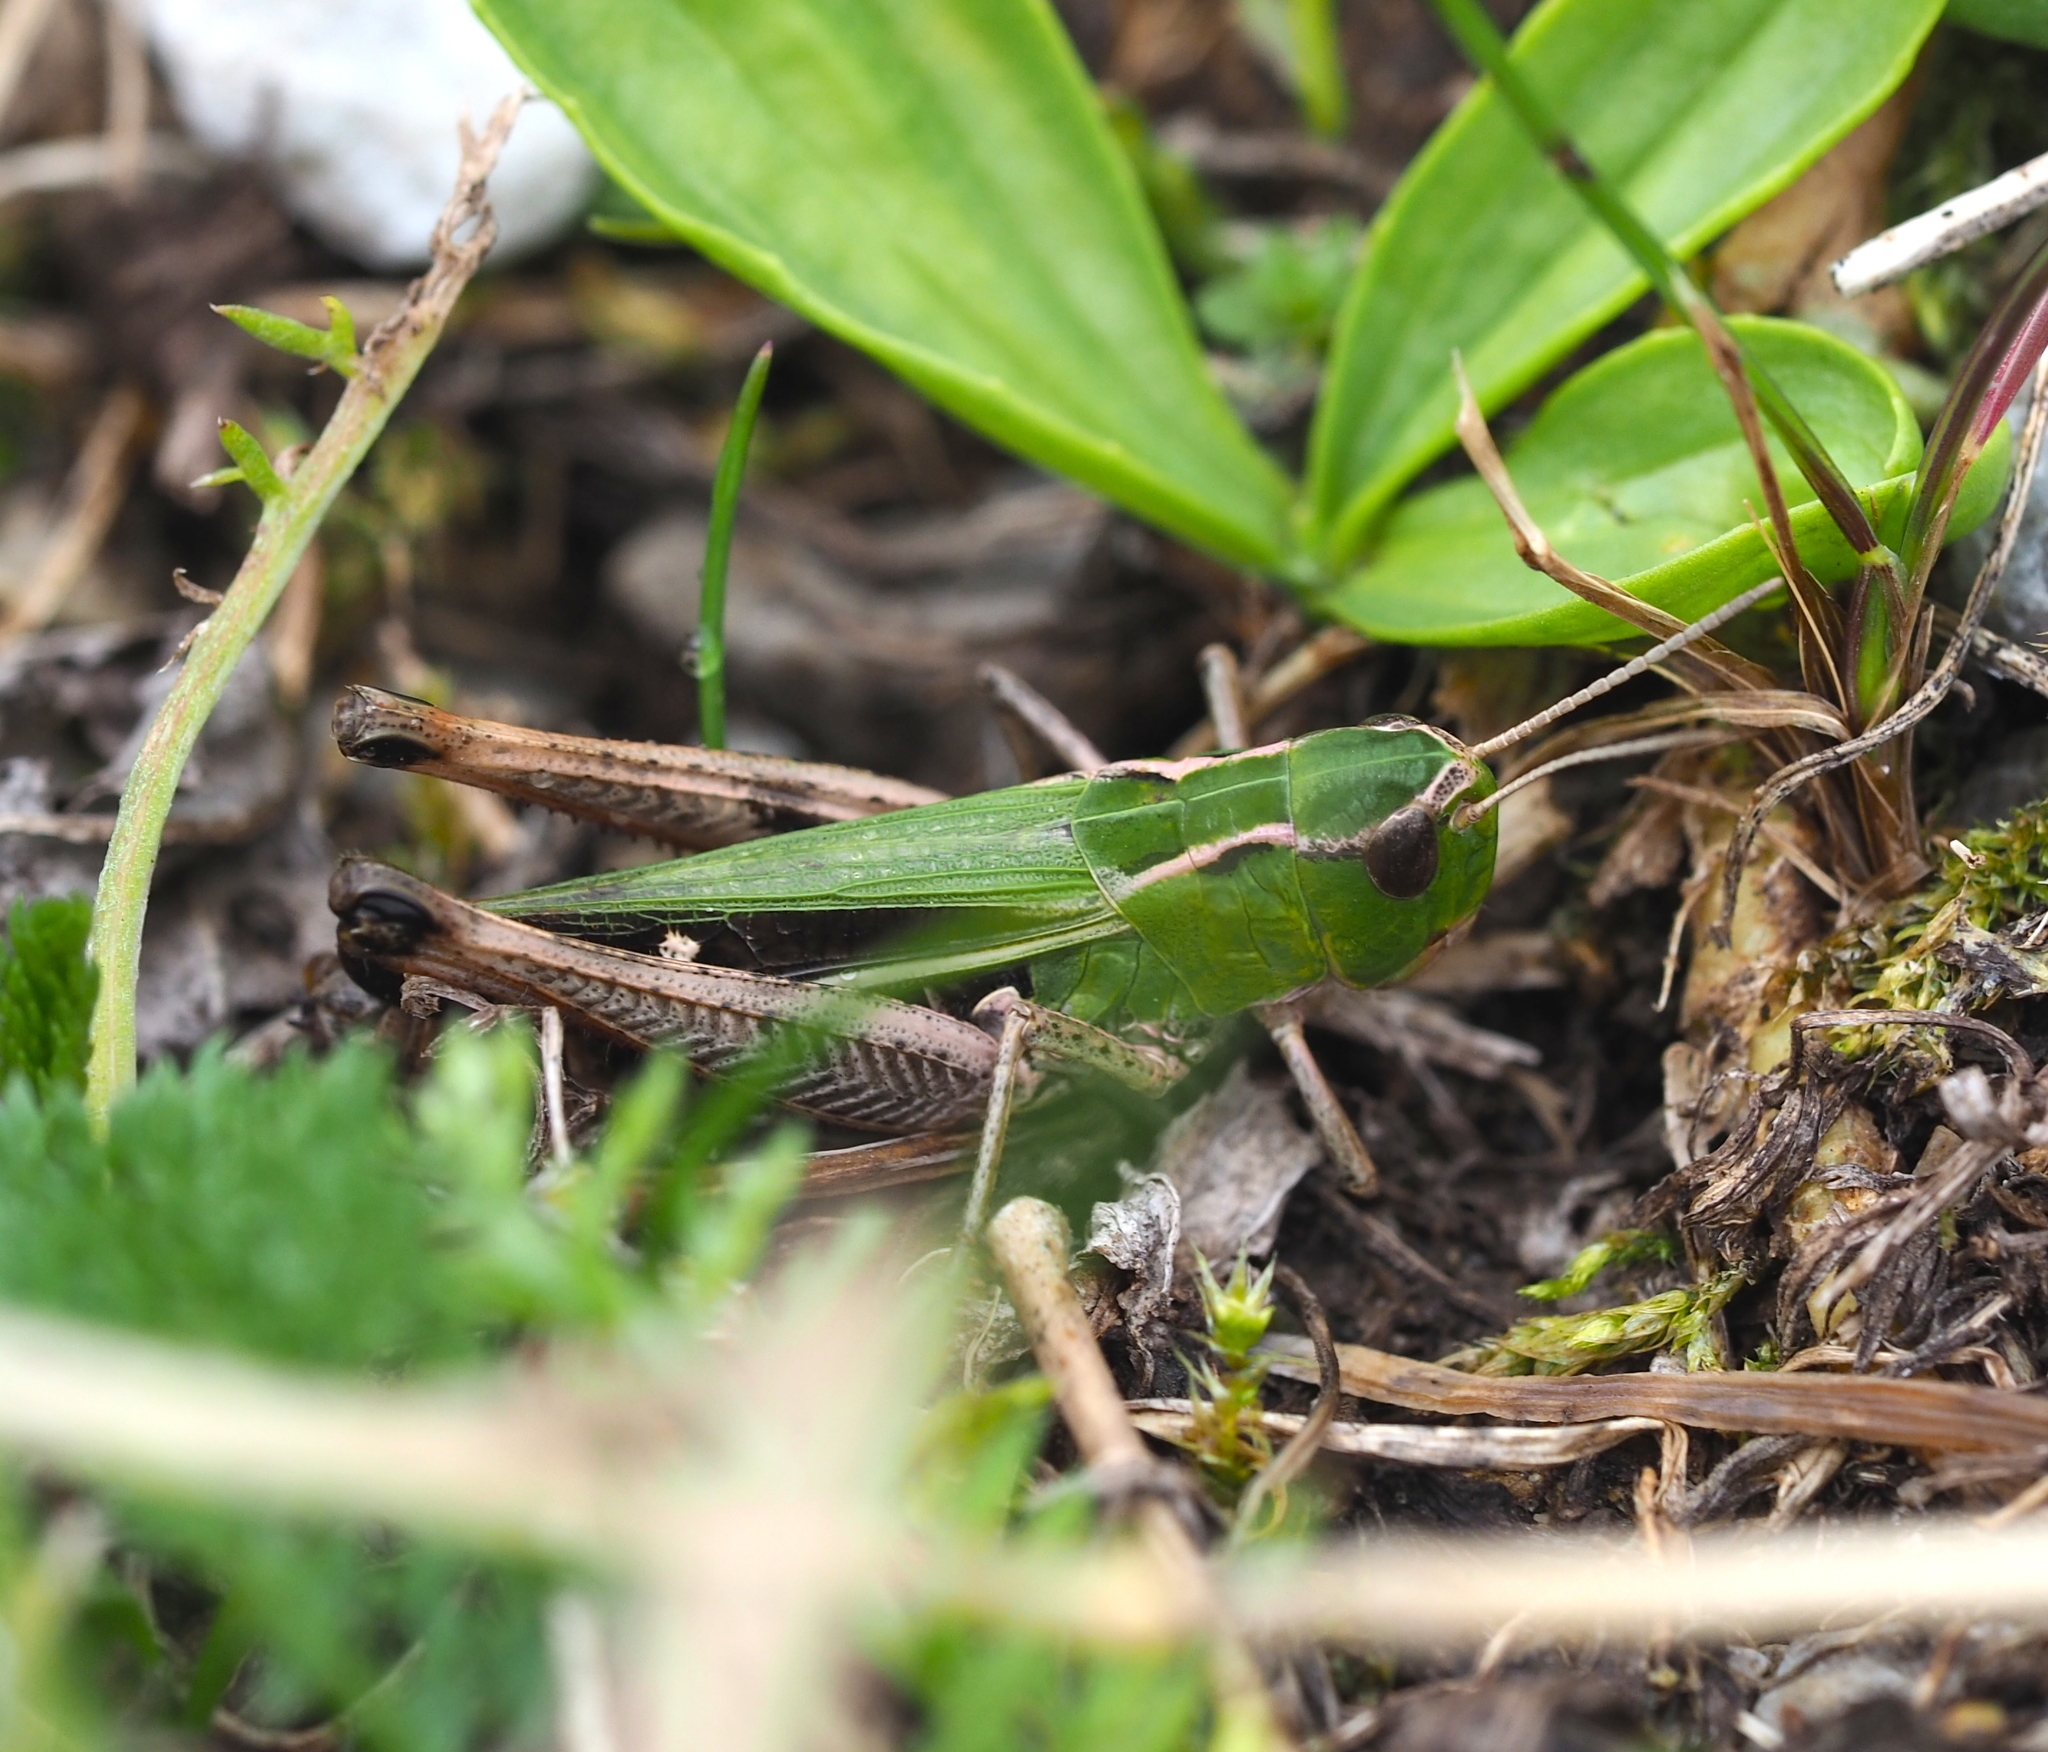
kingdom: Animalia
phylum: Arthropoda
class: Insecta
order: Orthoptera
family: Acrididae
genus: Stenobothrus
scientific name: Stenobothrus lineatus
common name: Stripe-winged grasshopper
